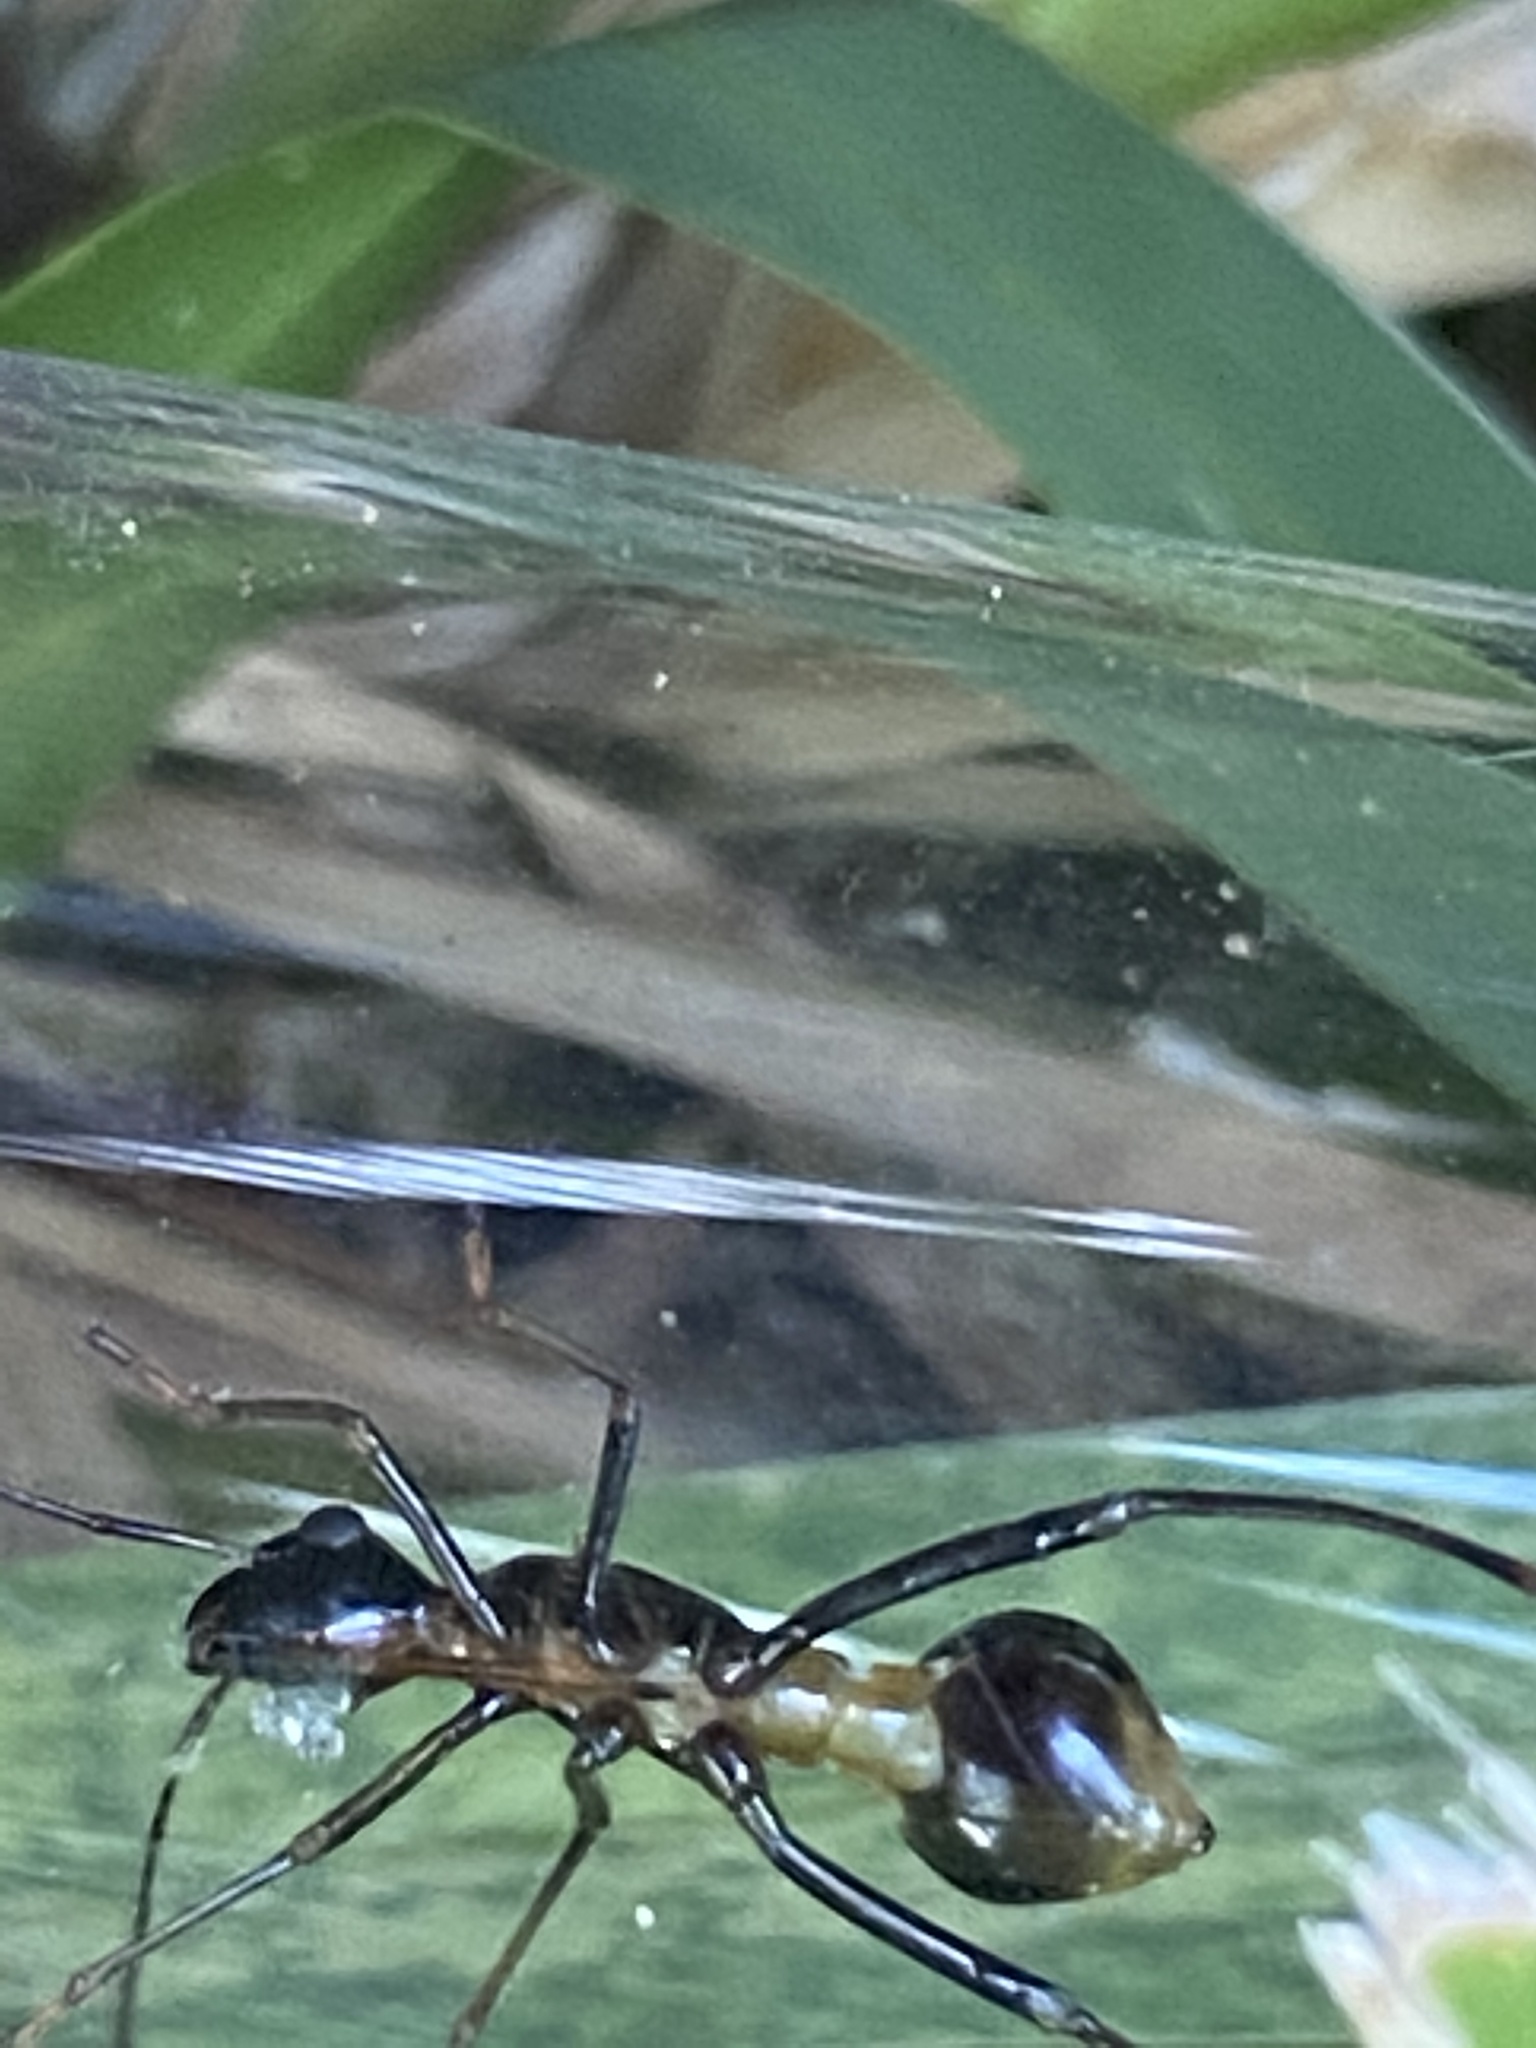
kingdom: Animalia
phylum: Arthropoda
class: Insecta
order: Hemiptera
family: Alydidae
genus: Hyalymenus
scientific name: Hyalymenus tarsatus
